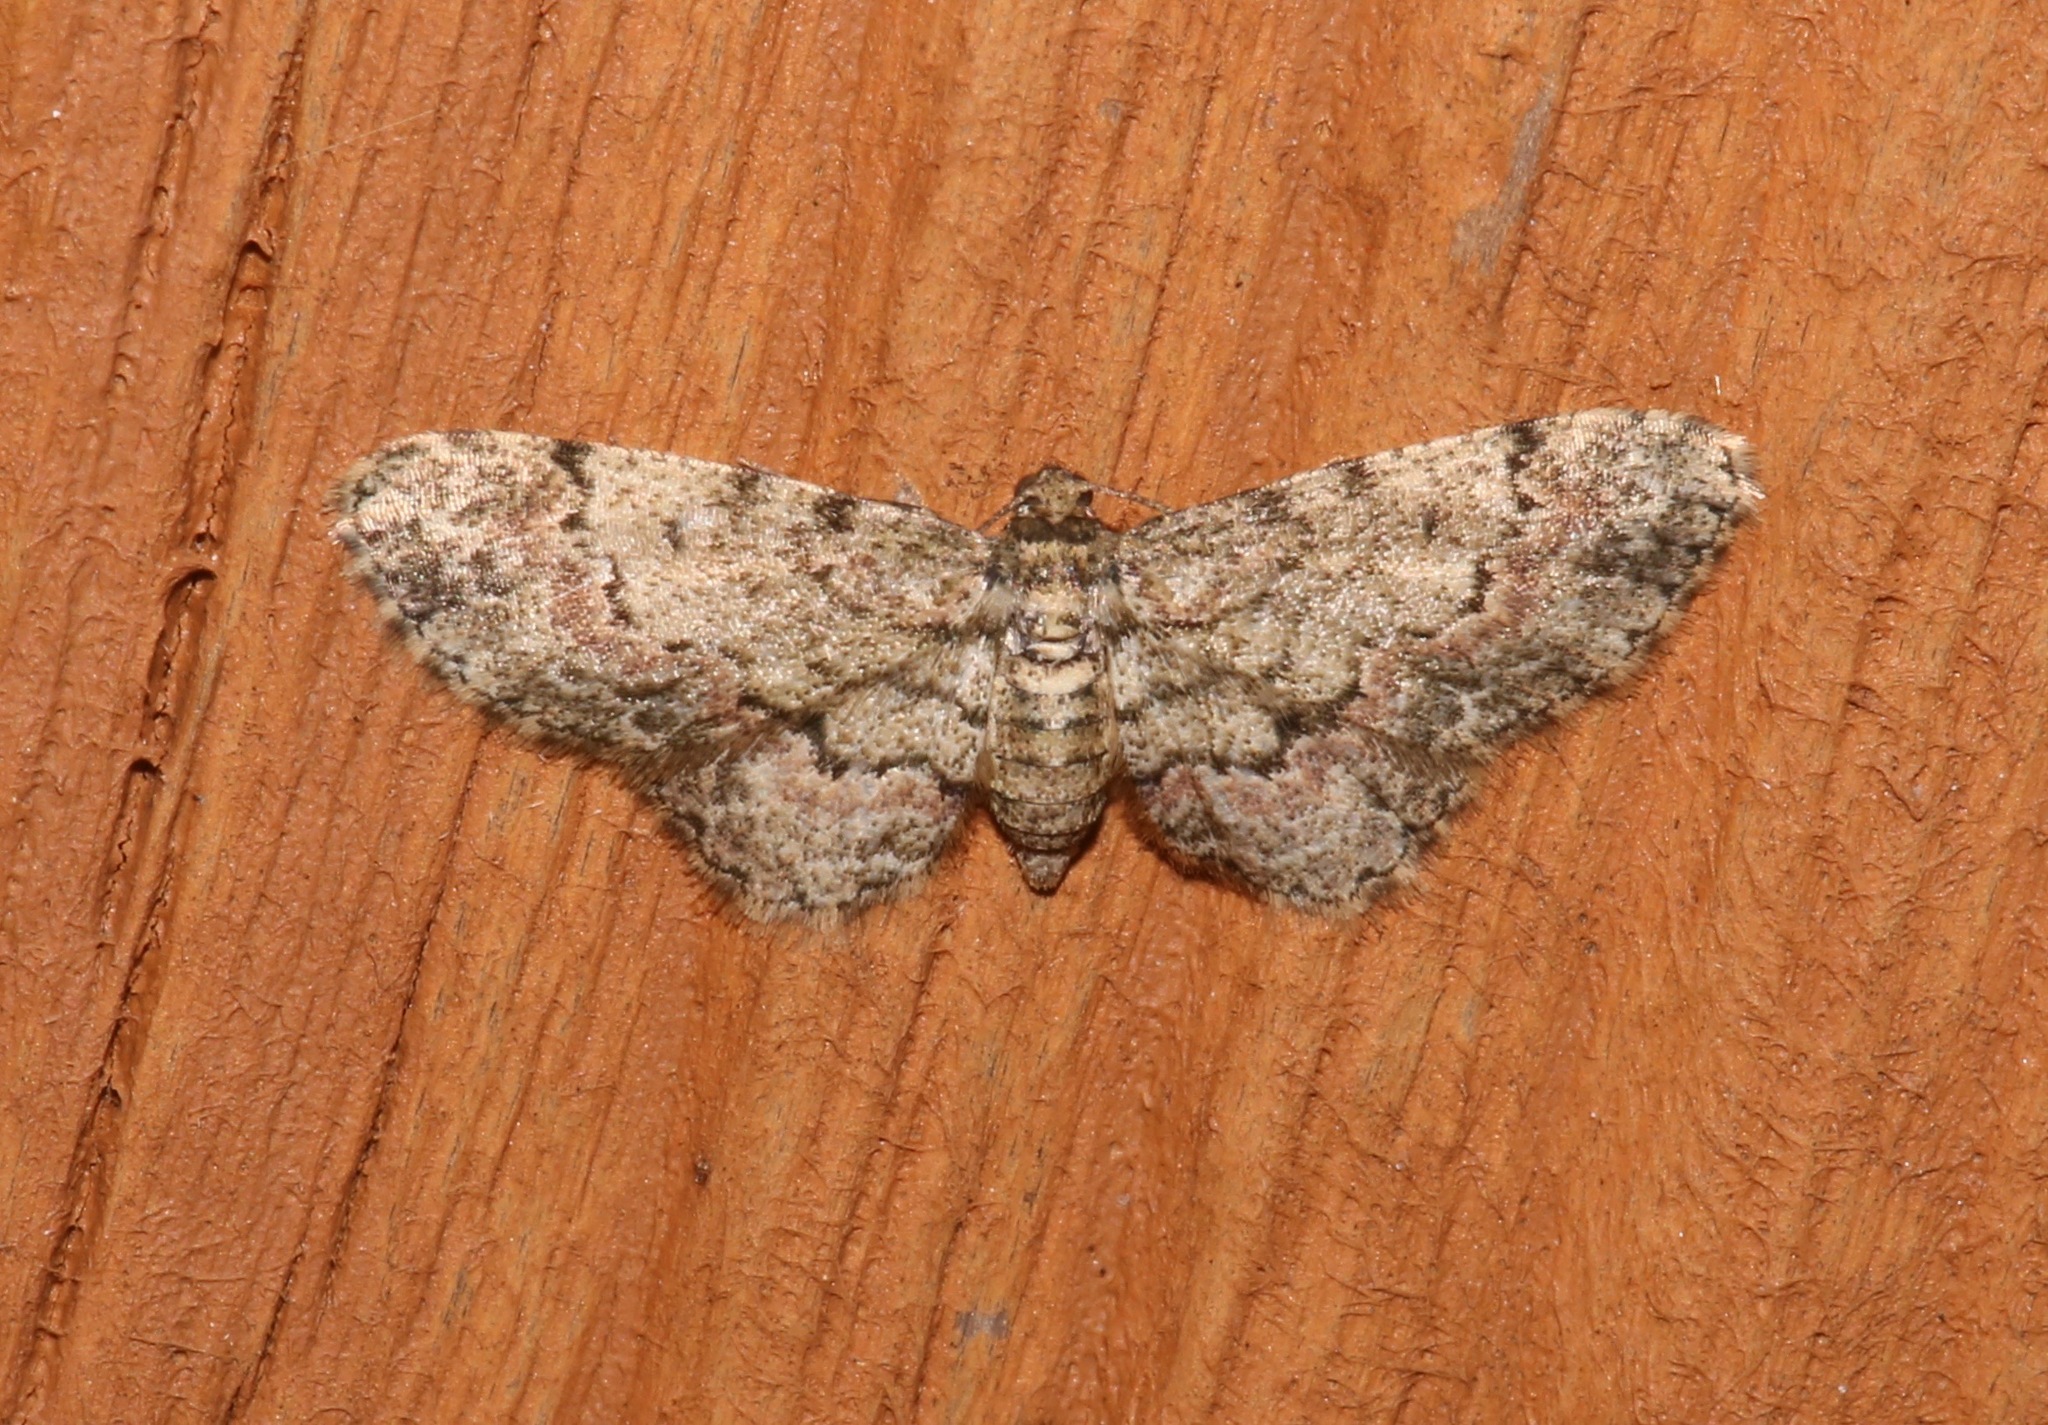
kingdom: Animalia
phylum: Arthropoda
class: Insecta
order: Lepidoptera
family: Geometridae
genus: Glenoides
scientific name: Glenoides texanaria
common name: Texas gray
